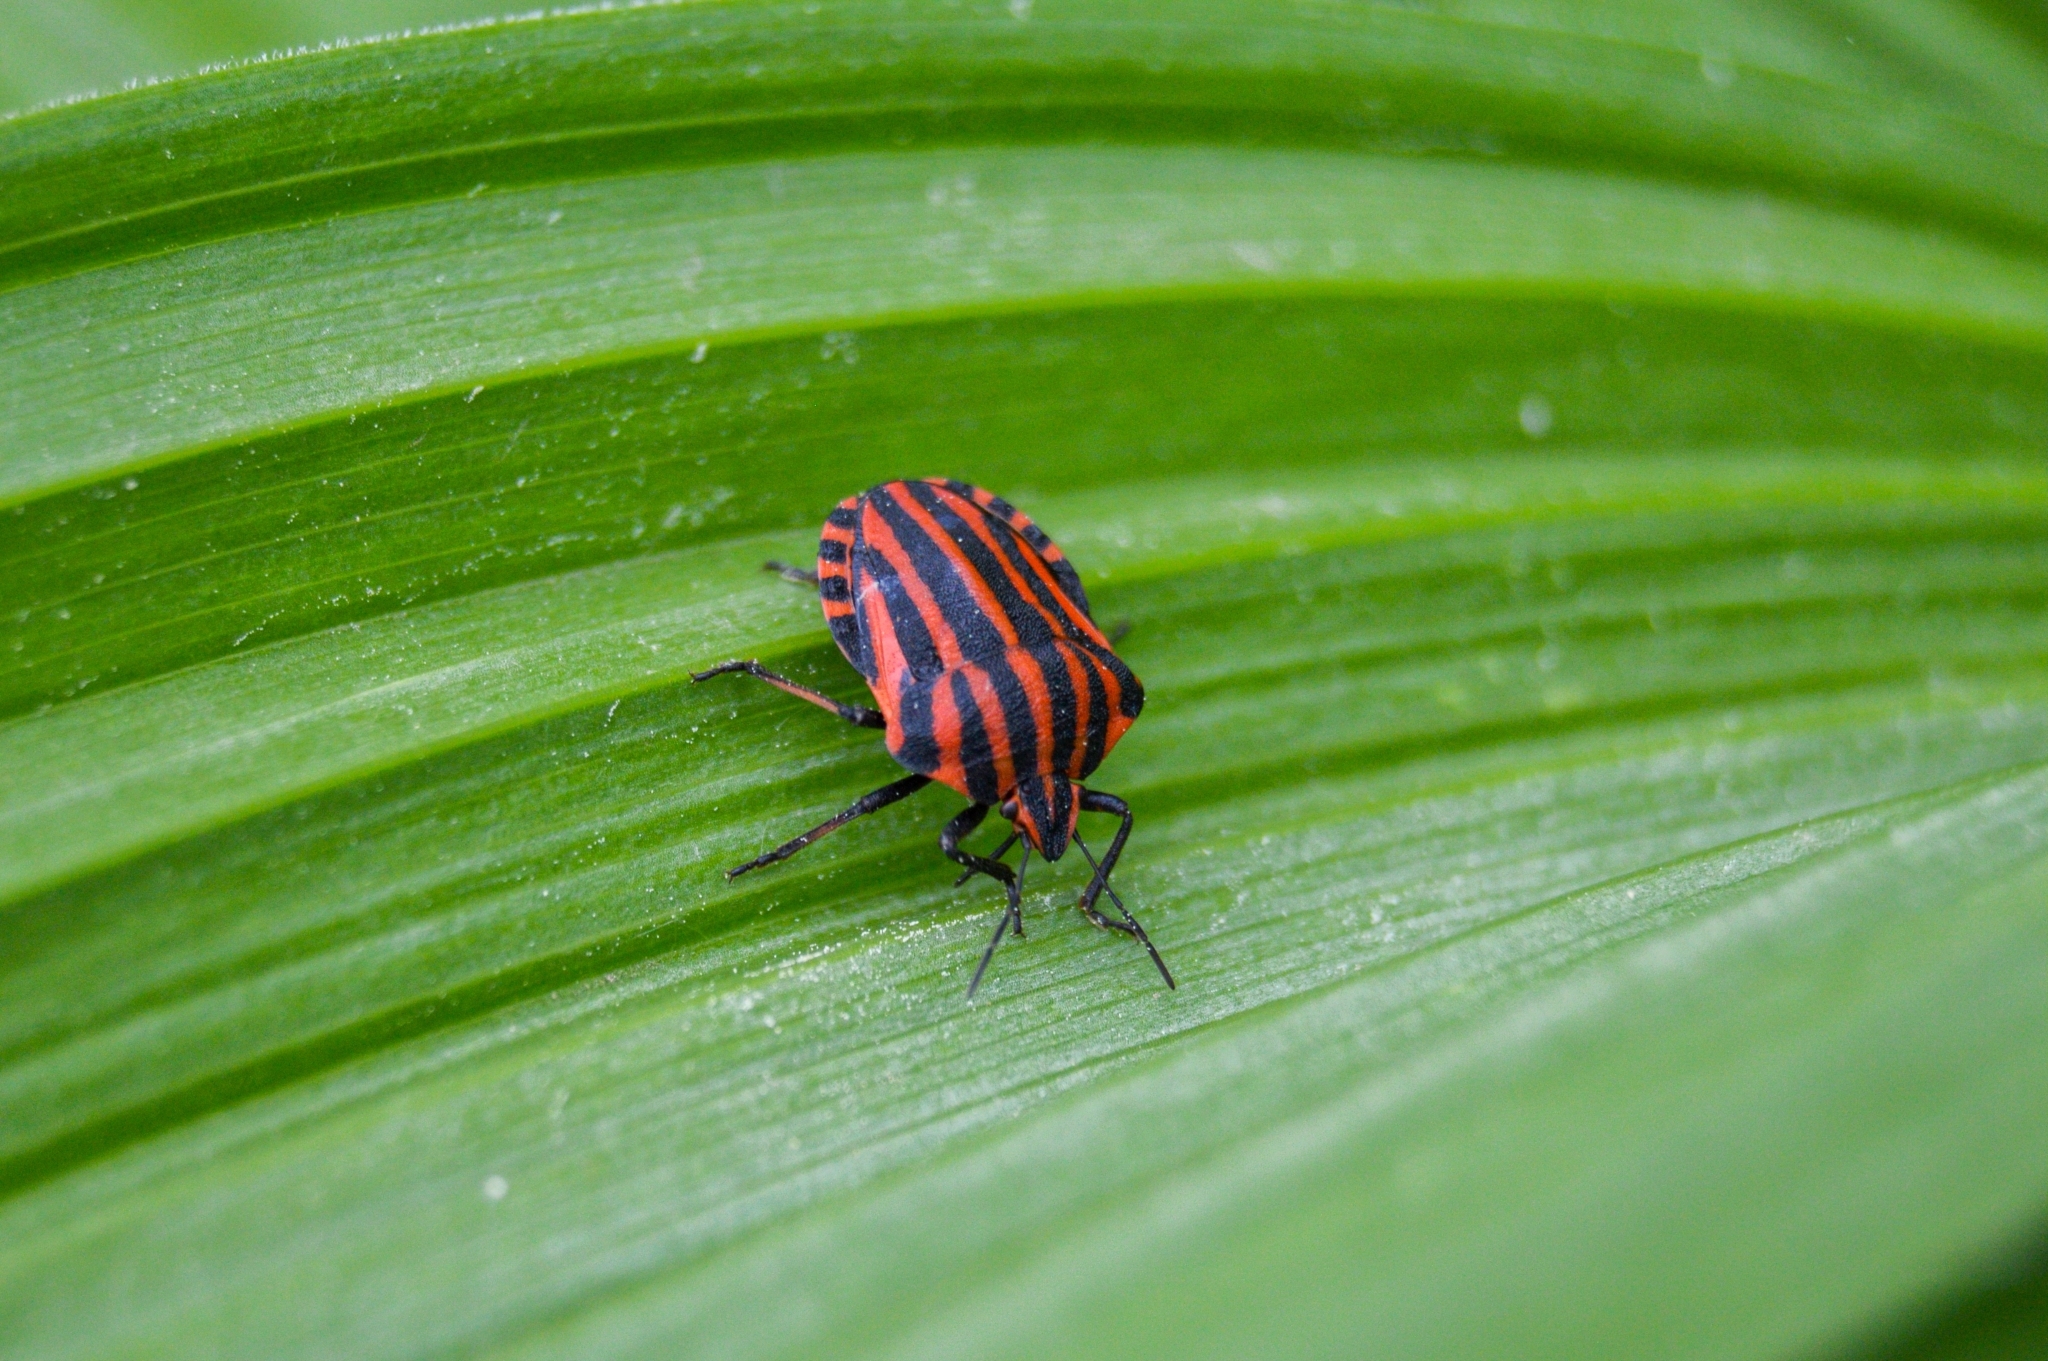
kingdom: Animalia
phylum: Arthropoda
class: Insecta
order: Hemiptera
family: Pentatomidae
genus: Graphosoma
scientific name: Graphosoma italicum
